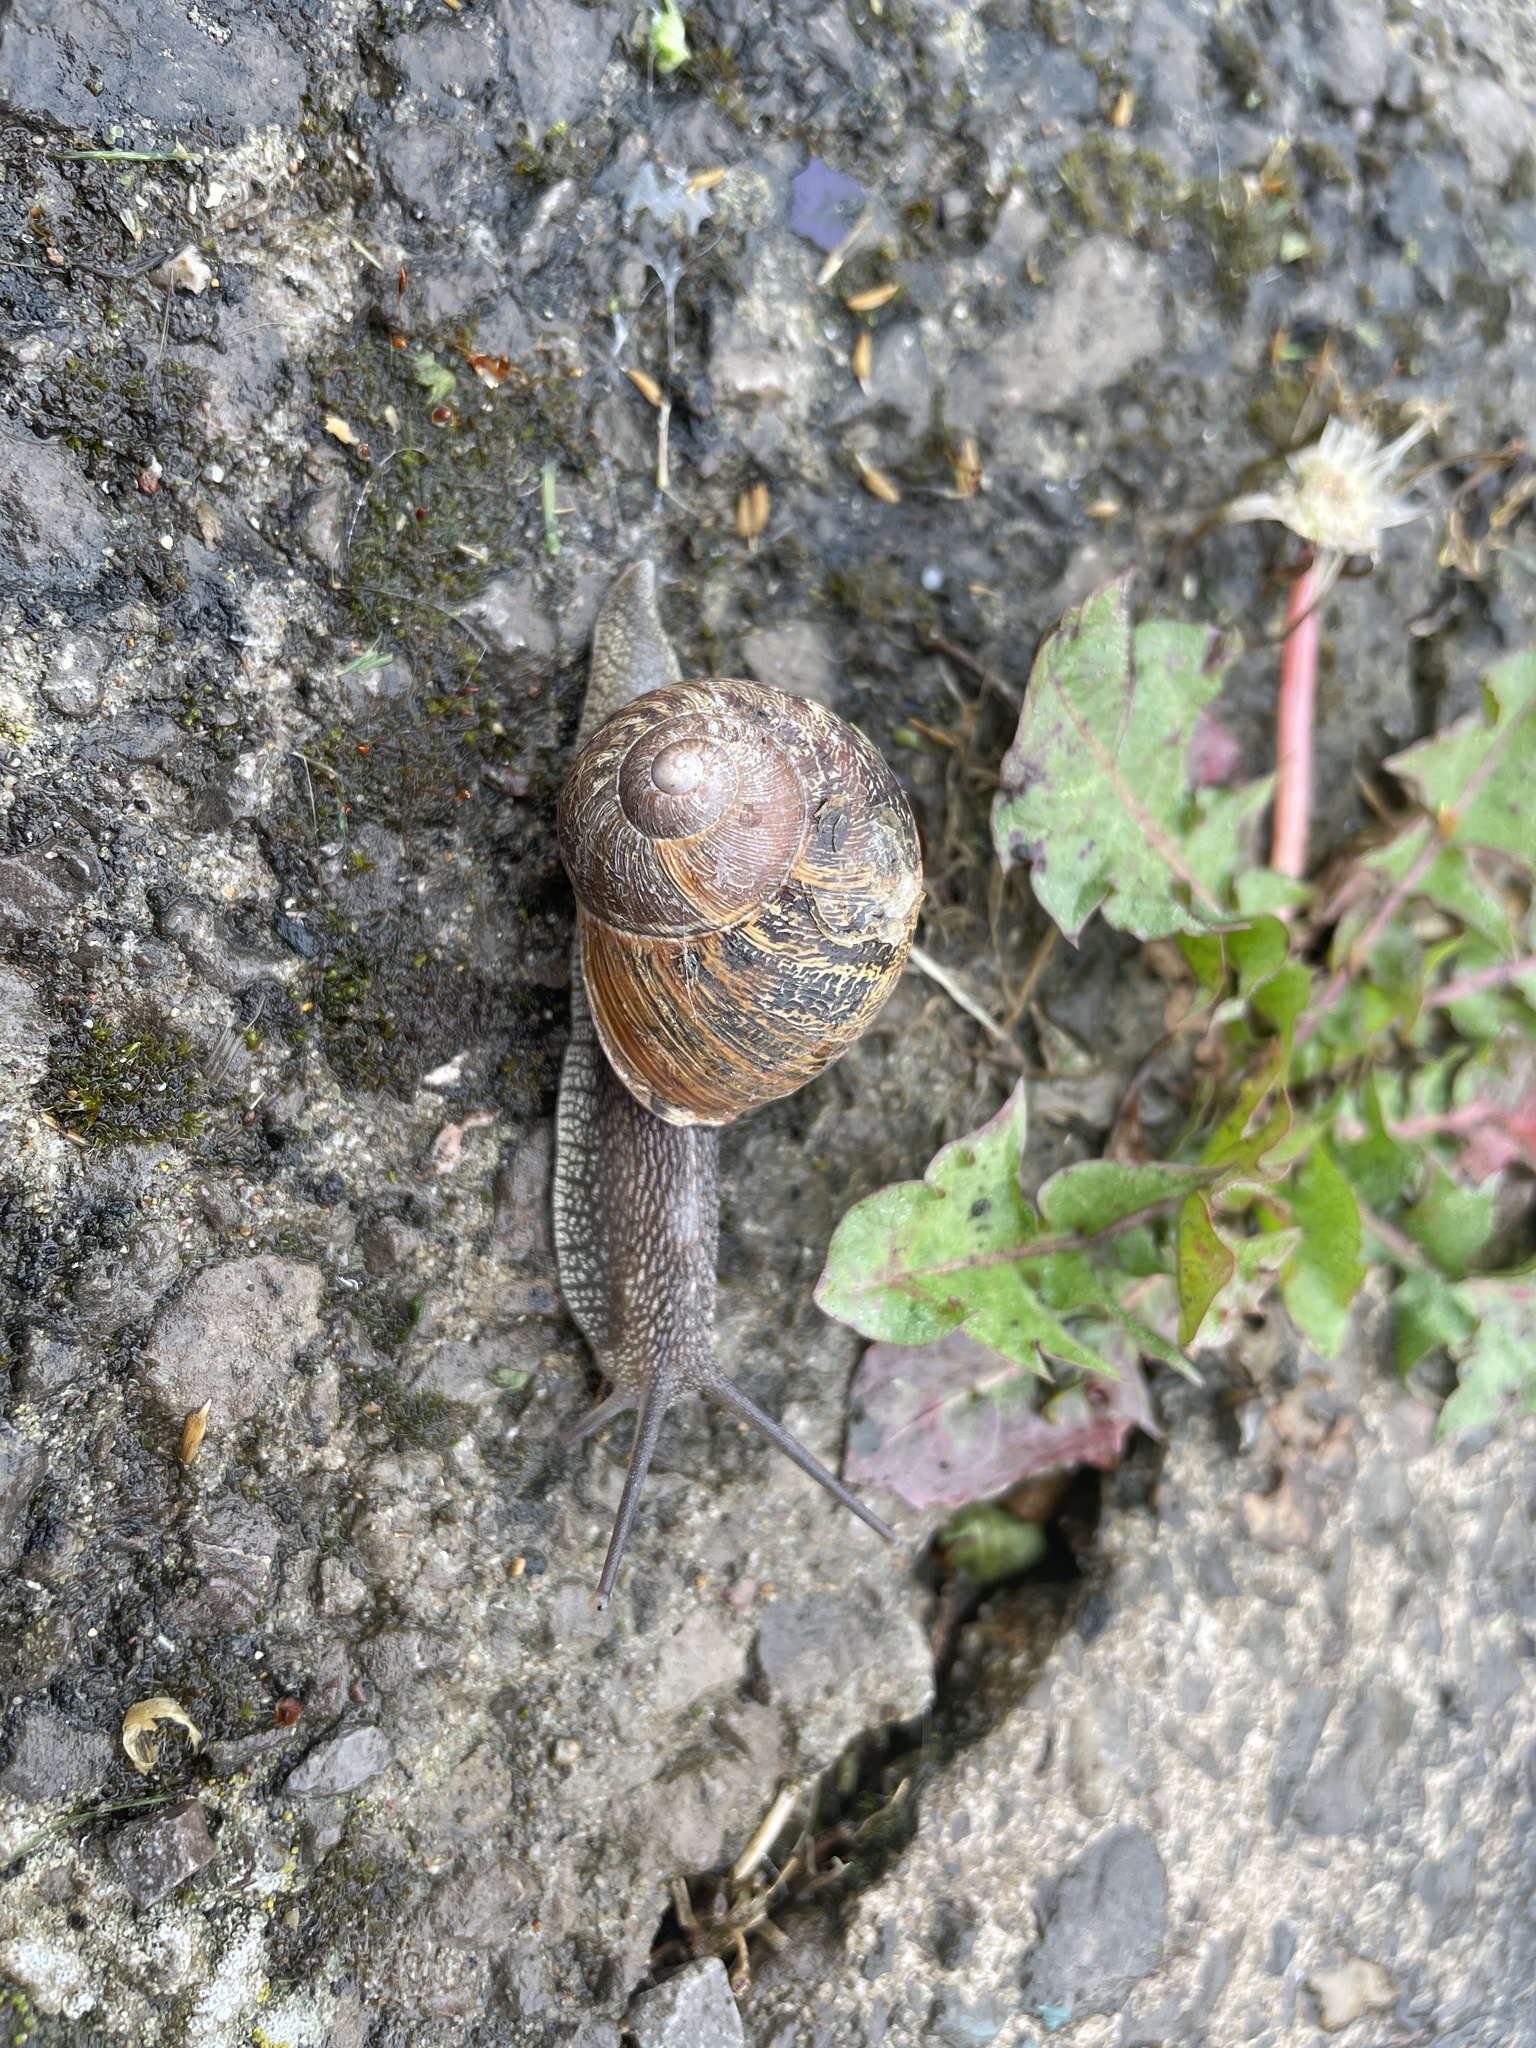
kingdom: Animalia
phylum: Mollusca
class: Gastropoda
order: Stylommatophora
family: Helicidae
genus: Cornu
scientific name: Cornu aspersum
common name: Brown garden snail
